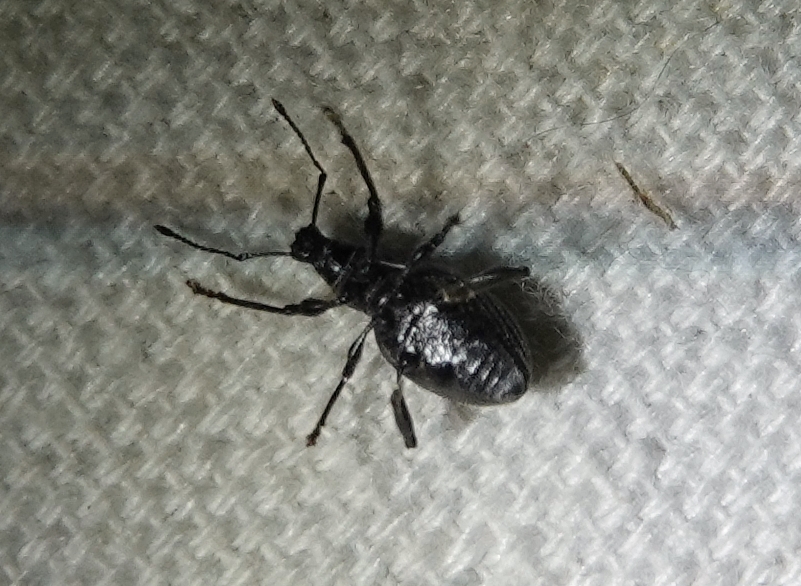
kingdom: Animalia
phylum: Arthropoda
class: Insecta
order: Coleoptera
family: Curculionidae
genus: Otiorhynchus
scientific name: Otiorhynchus meridionalis
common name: Weevil
